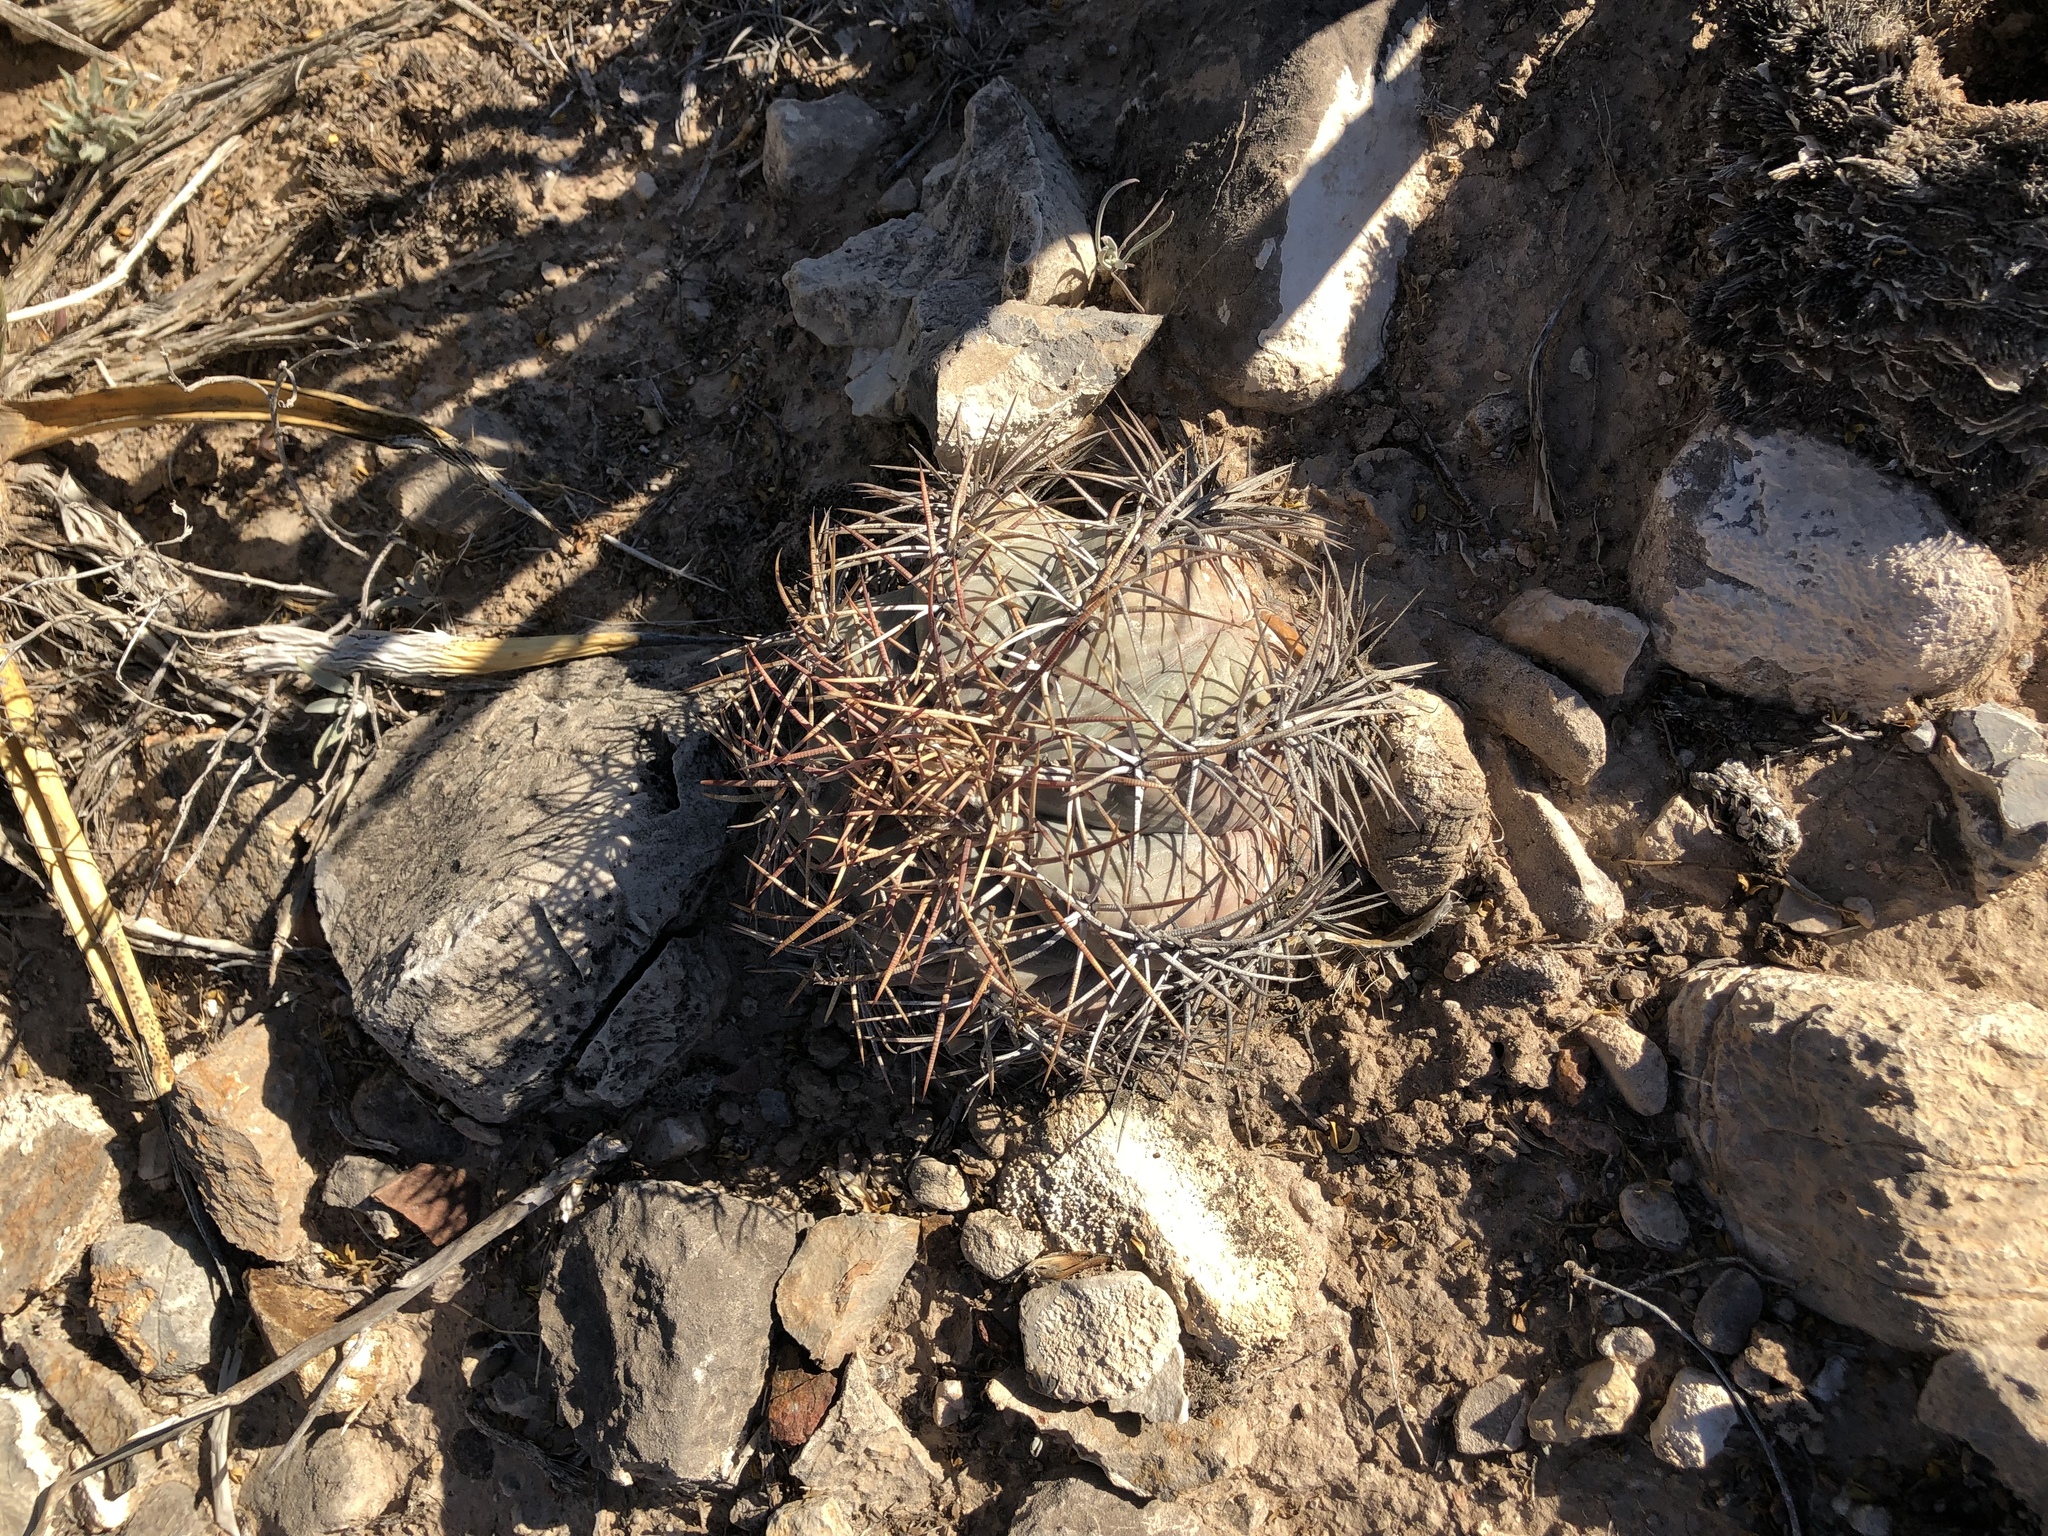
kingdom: Plantae
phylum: Tracheophyta
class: Magnoliopsida
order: Caryophyllales
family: Cactaceae
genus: Echinocactus
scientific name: Echinocactus horizonthalonius
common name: Devilshead
